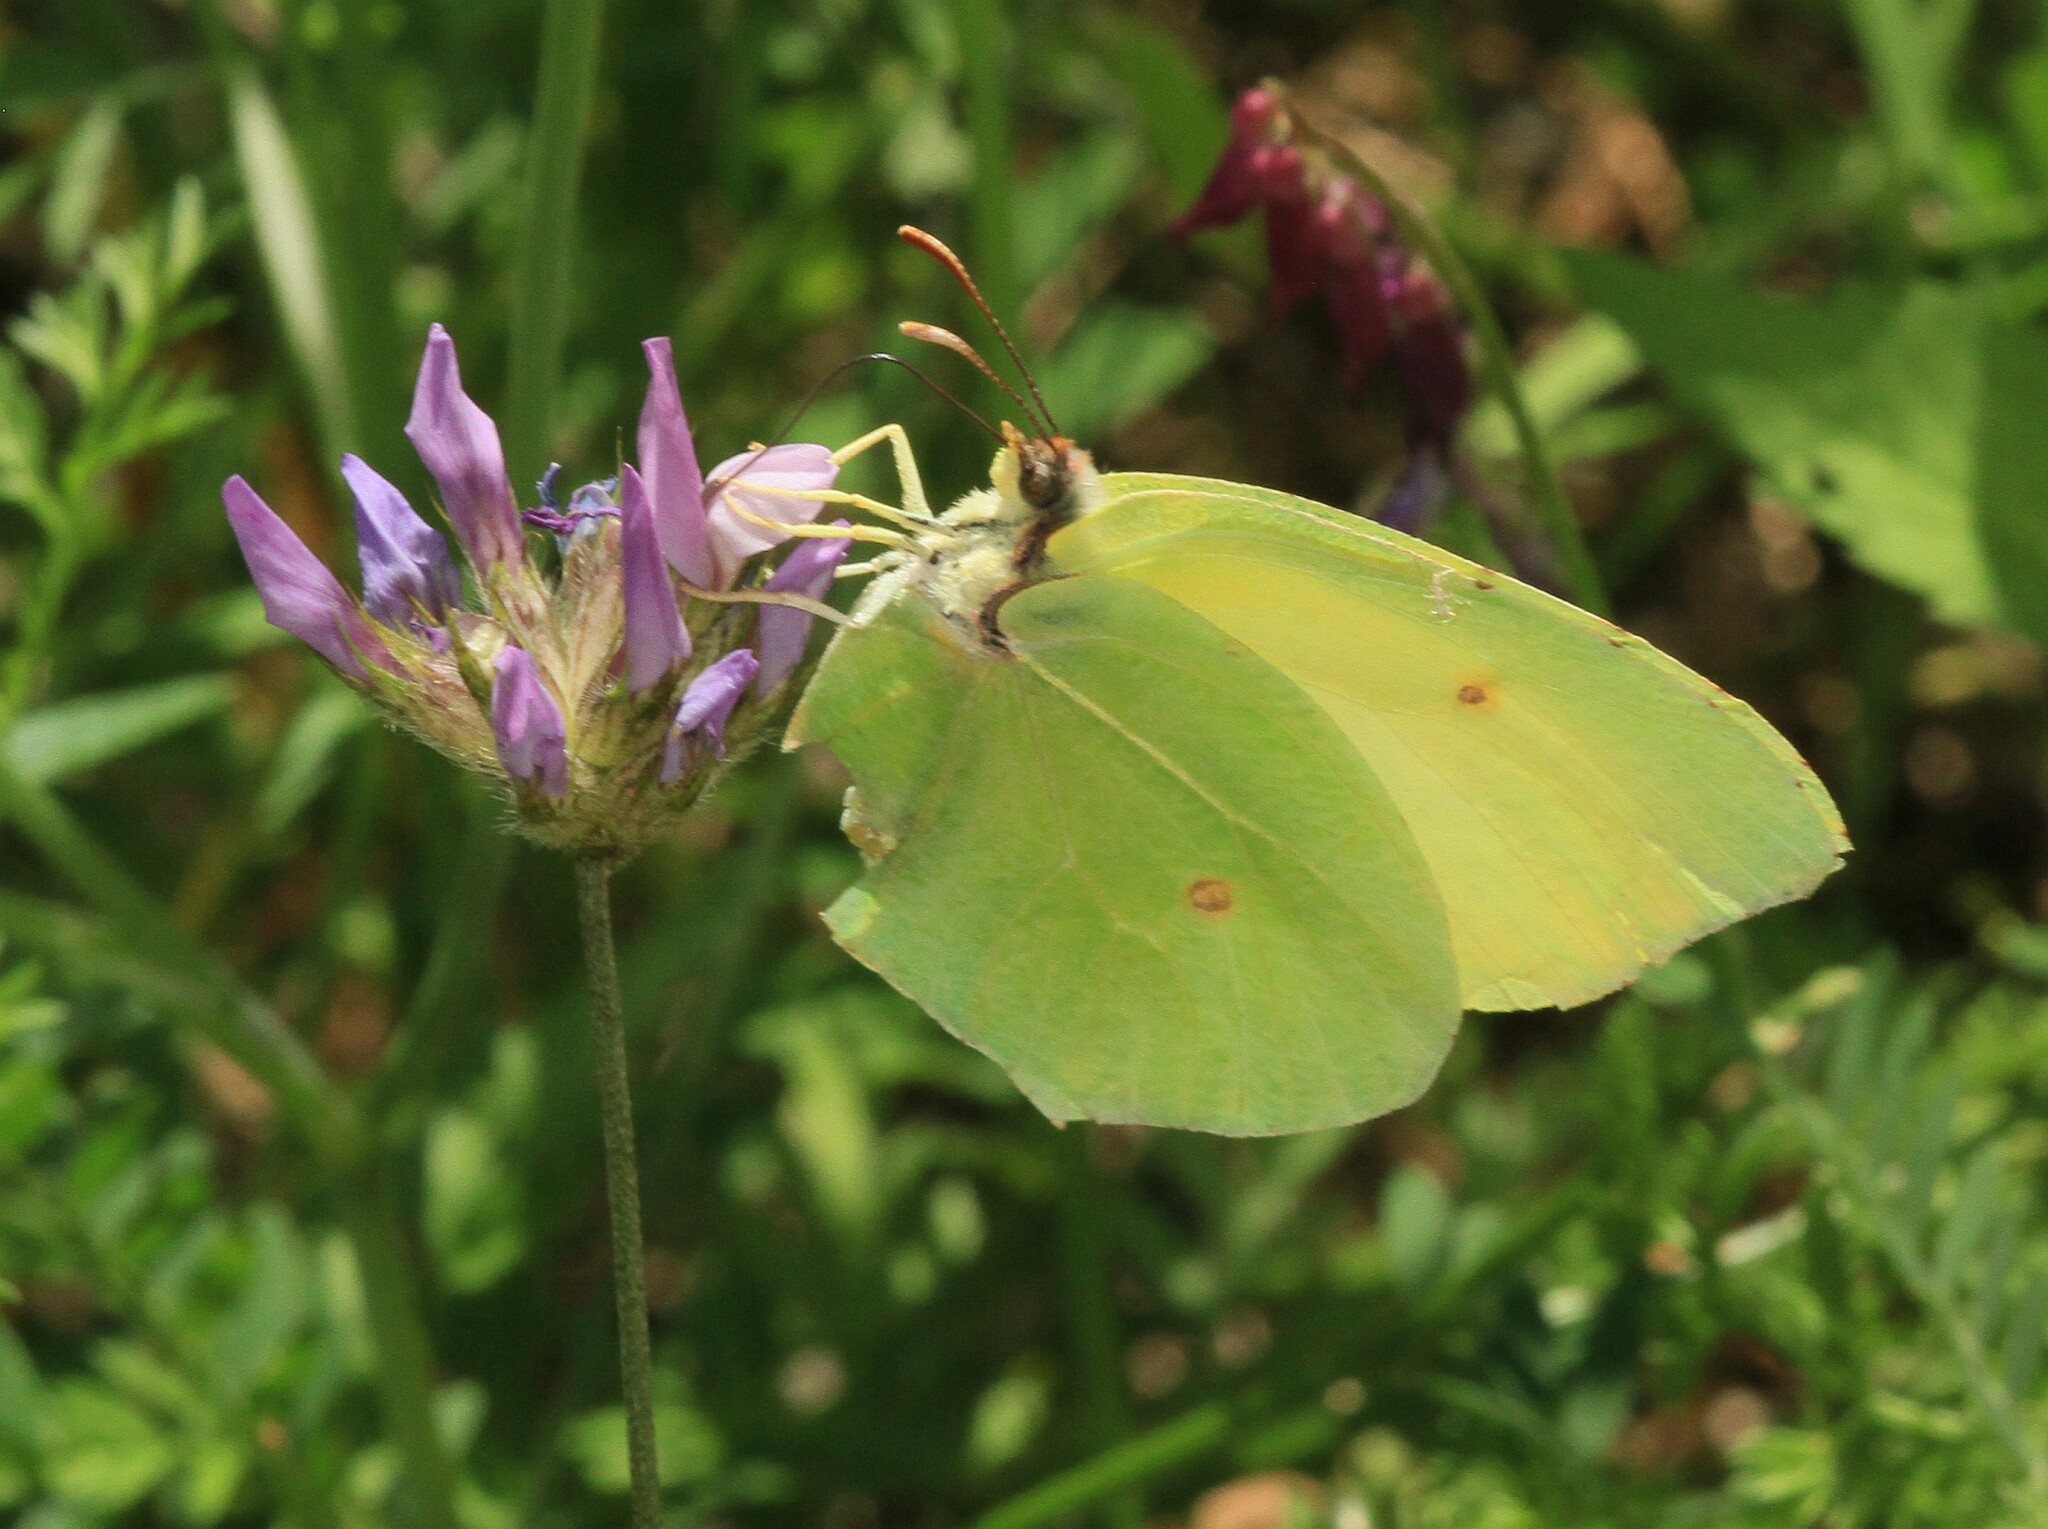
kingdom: Animalia
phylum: Arthropoda
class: Insecta
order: Lepidoptera
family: Pieridae
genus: Gonepteryx
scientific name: Gonepteryx cleopatra
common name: Cleopatra
